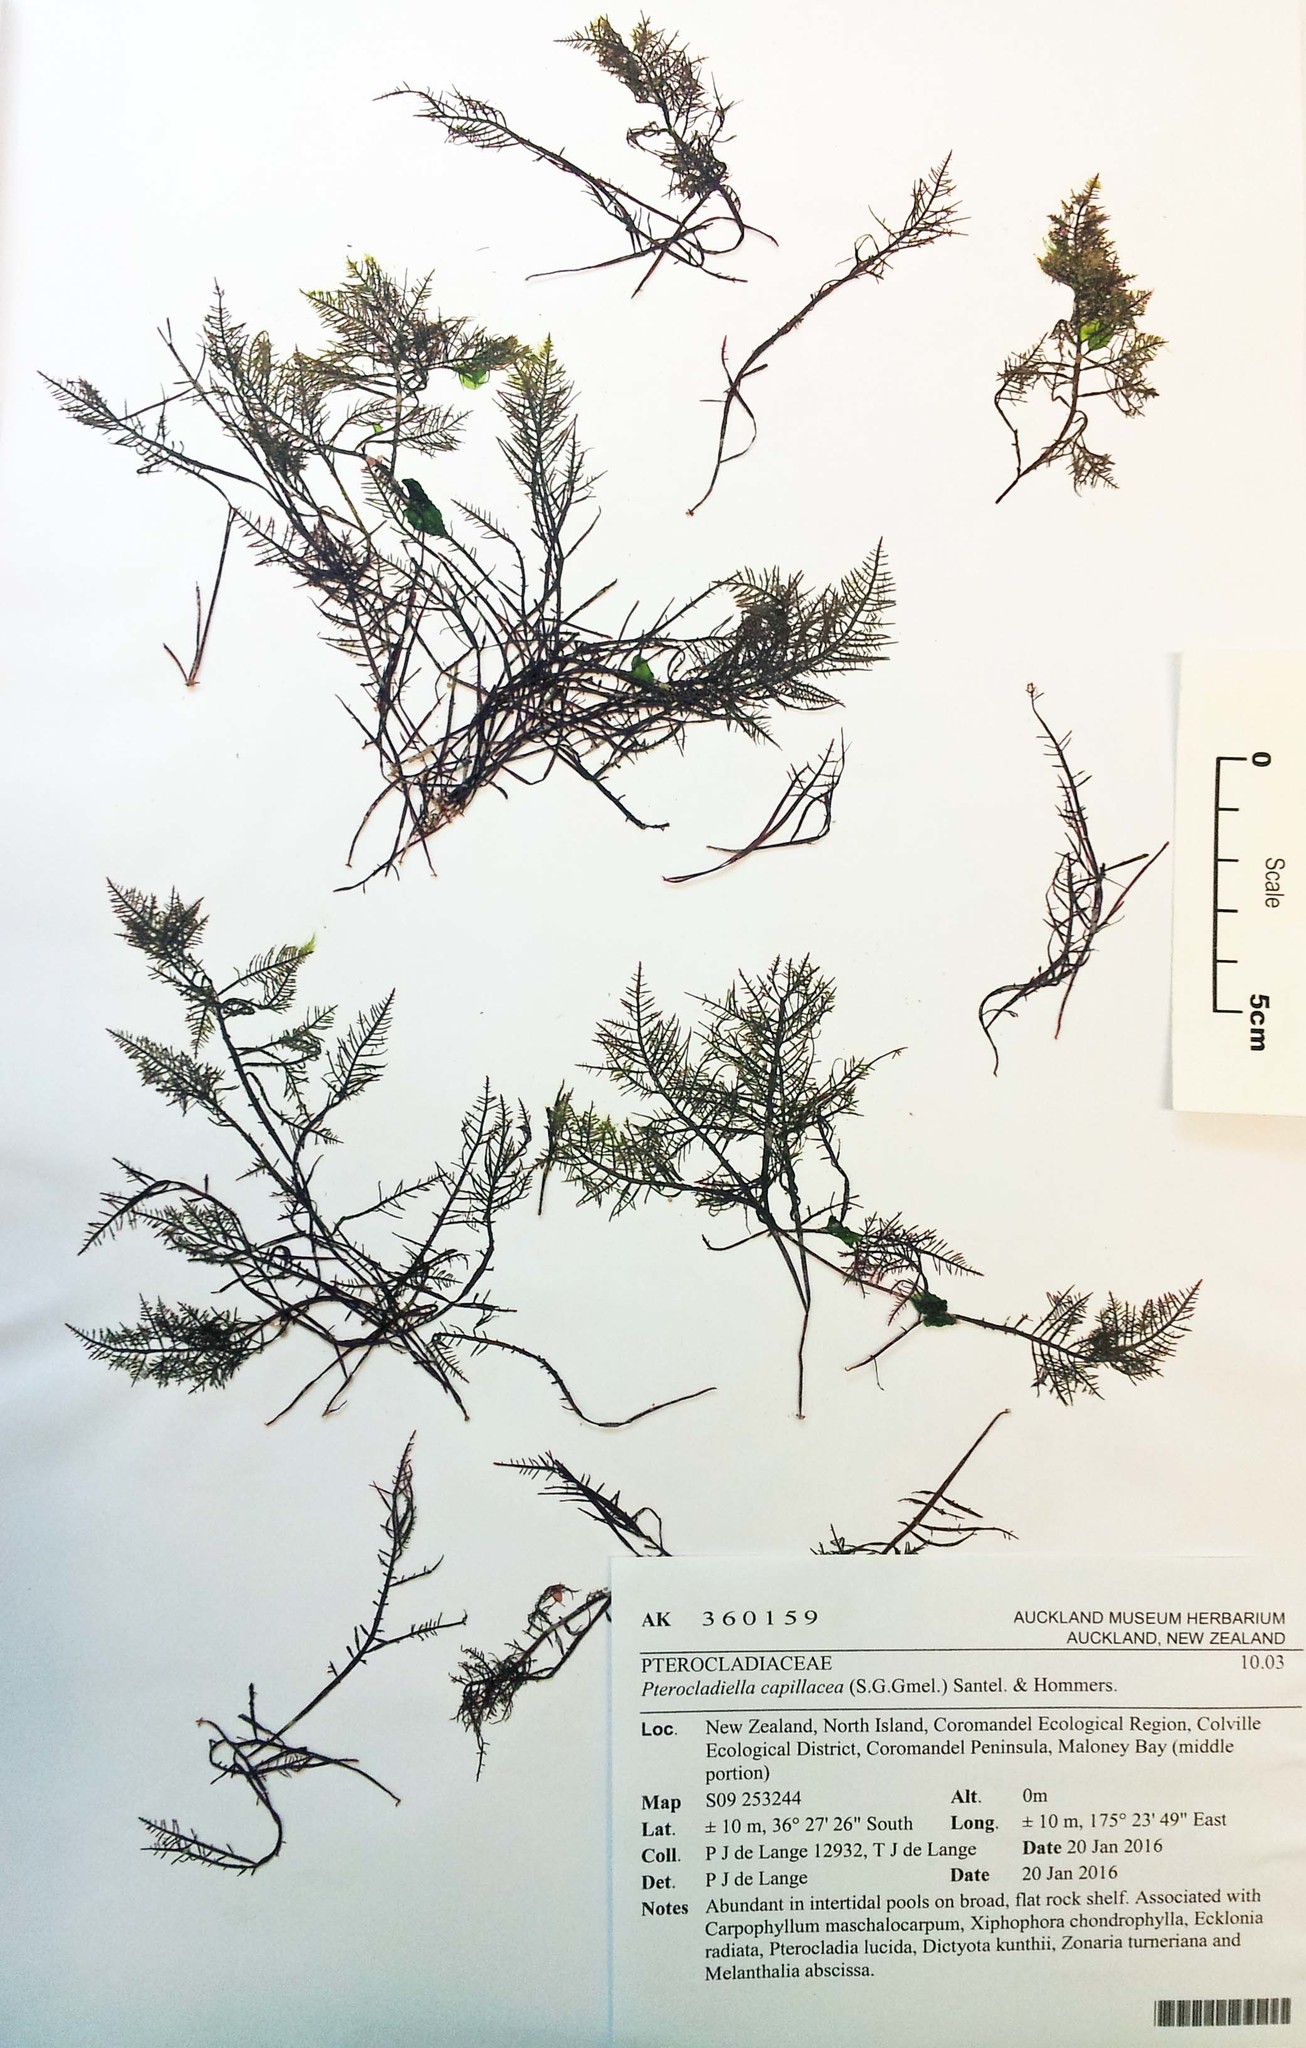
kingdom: Plantae
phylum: Rhodophyta
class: Florideophyceae
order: Gelidiales
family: Pterocladiaceae
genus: Pterocladiella
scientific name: Pterocladiella capillacea
